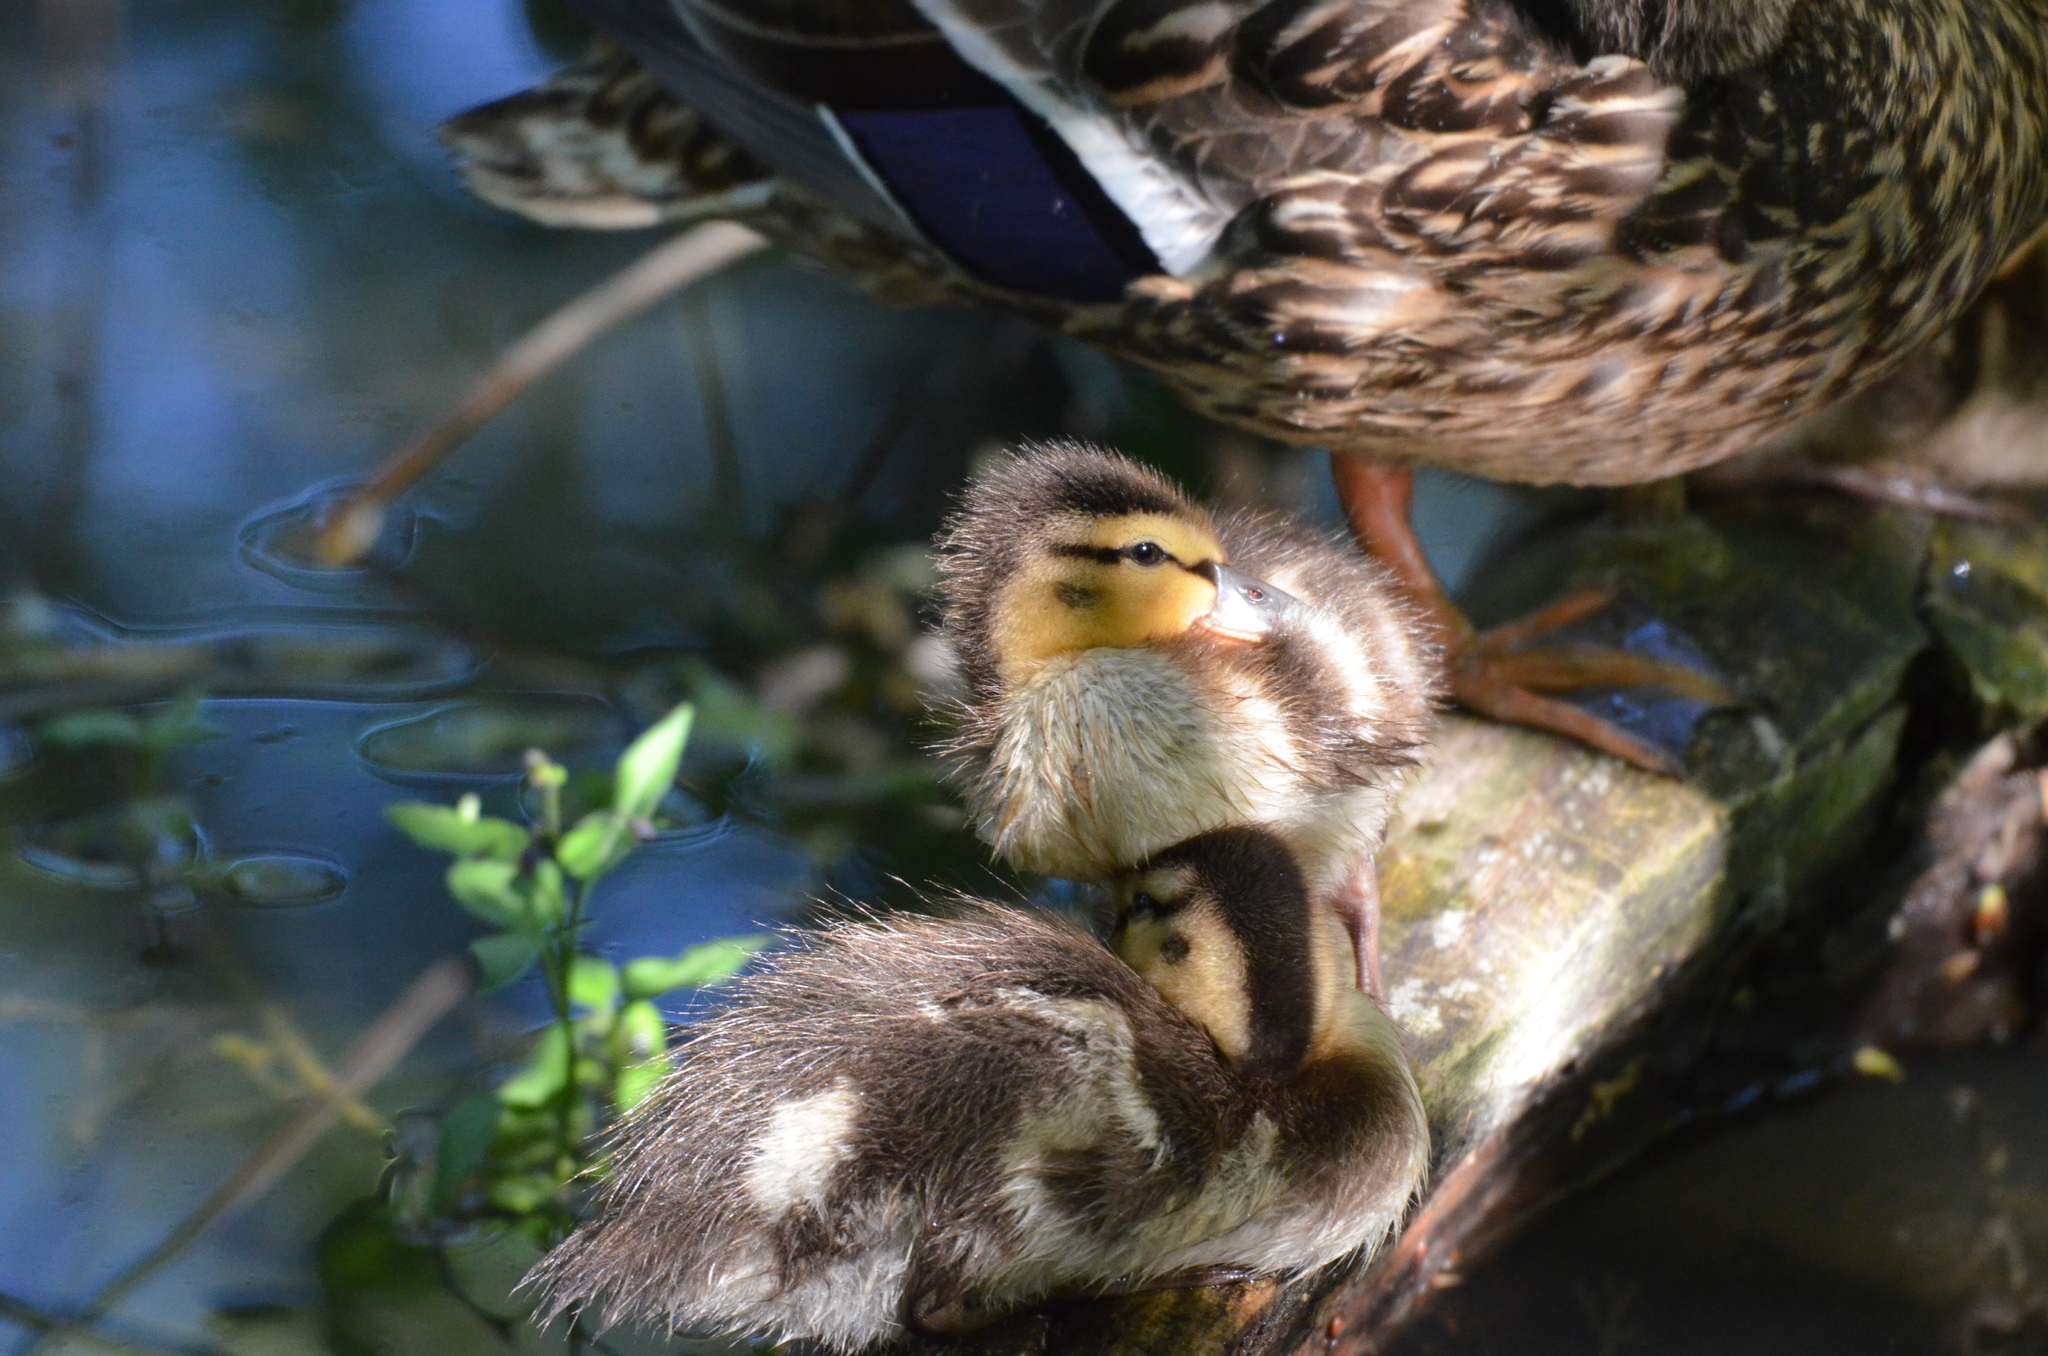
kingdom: Animalia
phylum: Chordata
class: Aves
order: Anseriformes
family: Anatidae
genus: Anas
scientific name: Anas platyrhynchos
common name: Mallard
